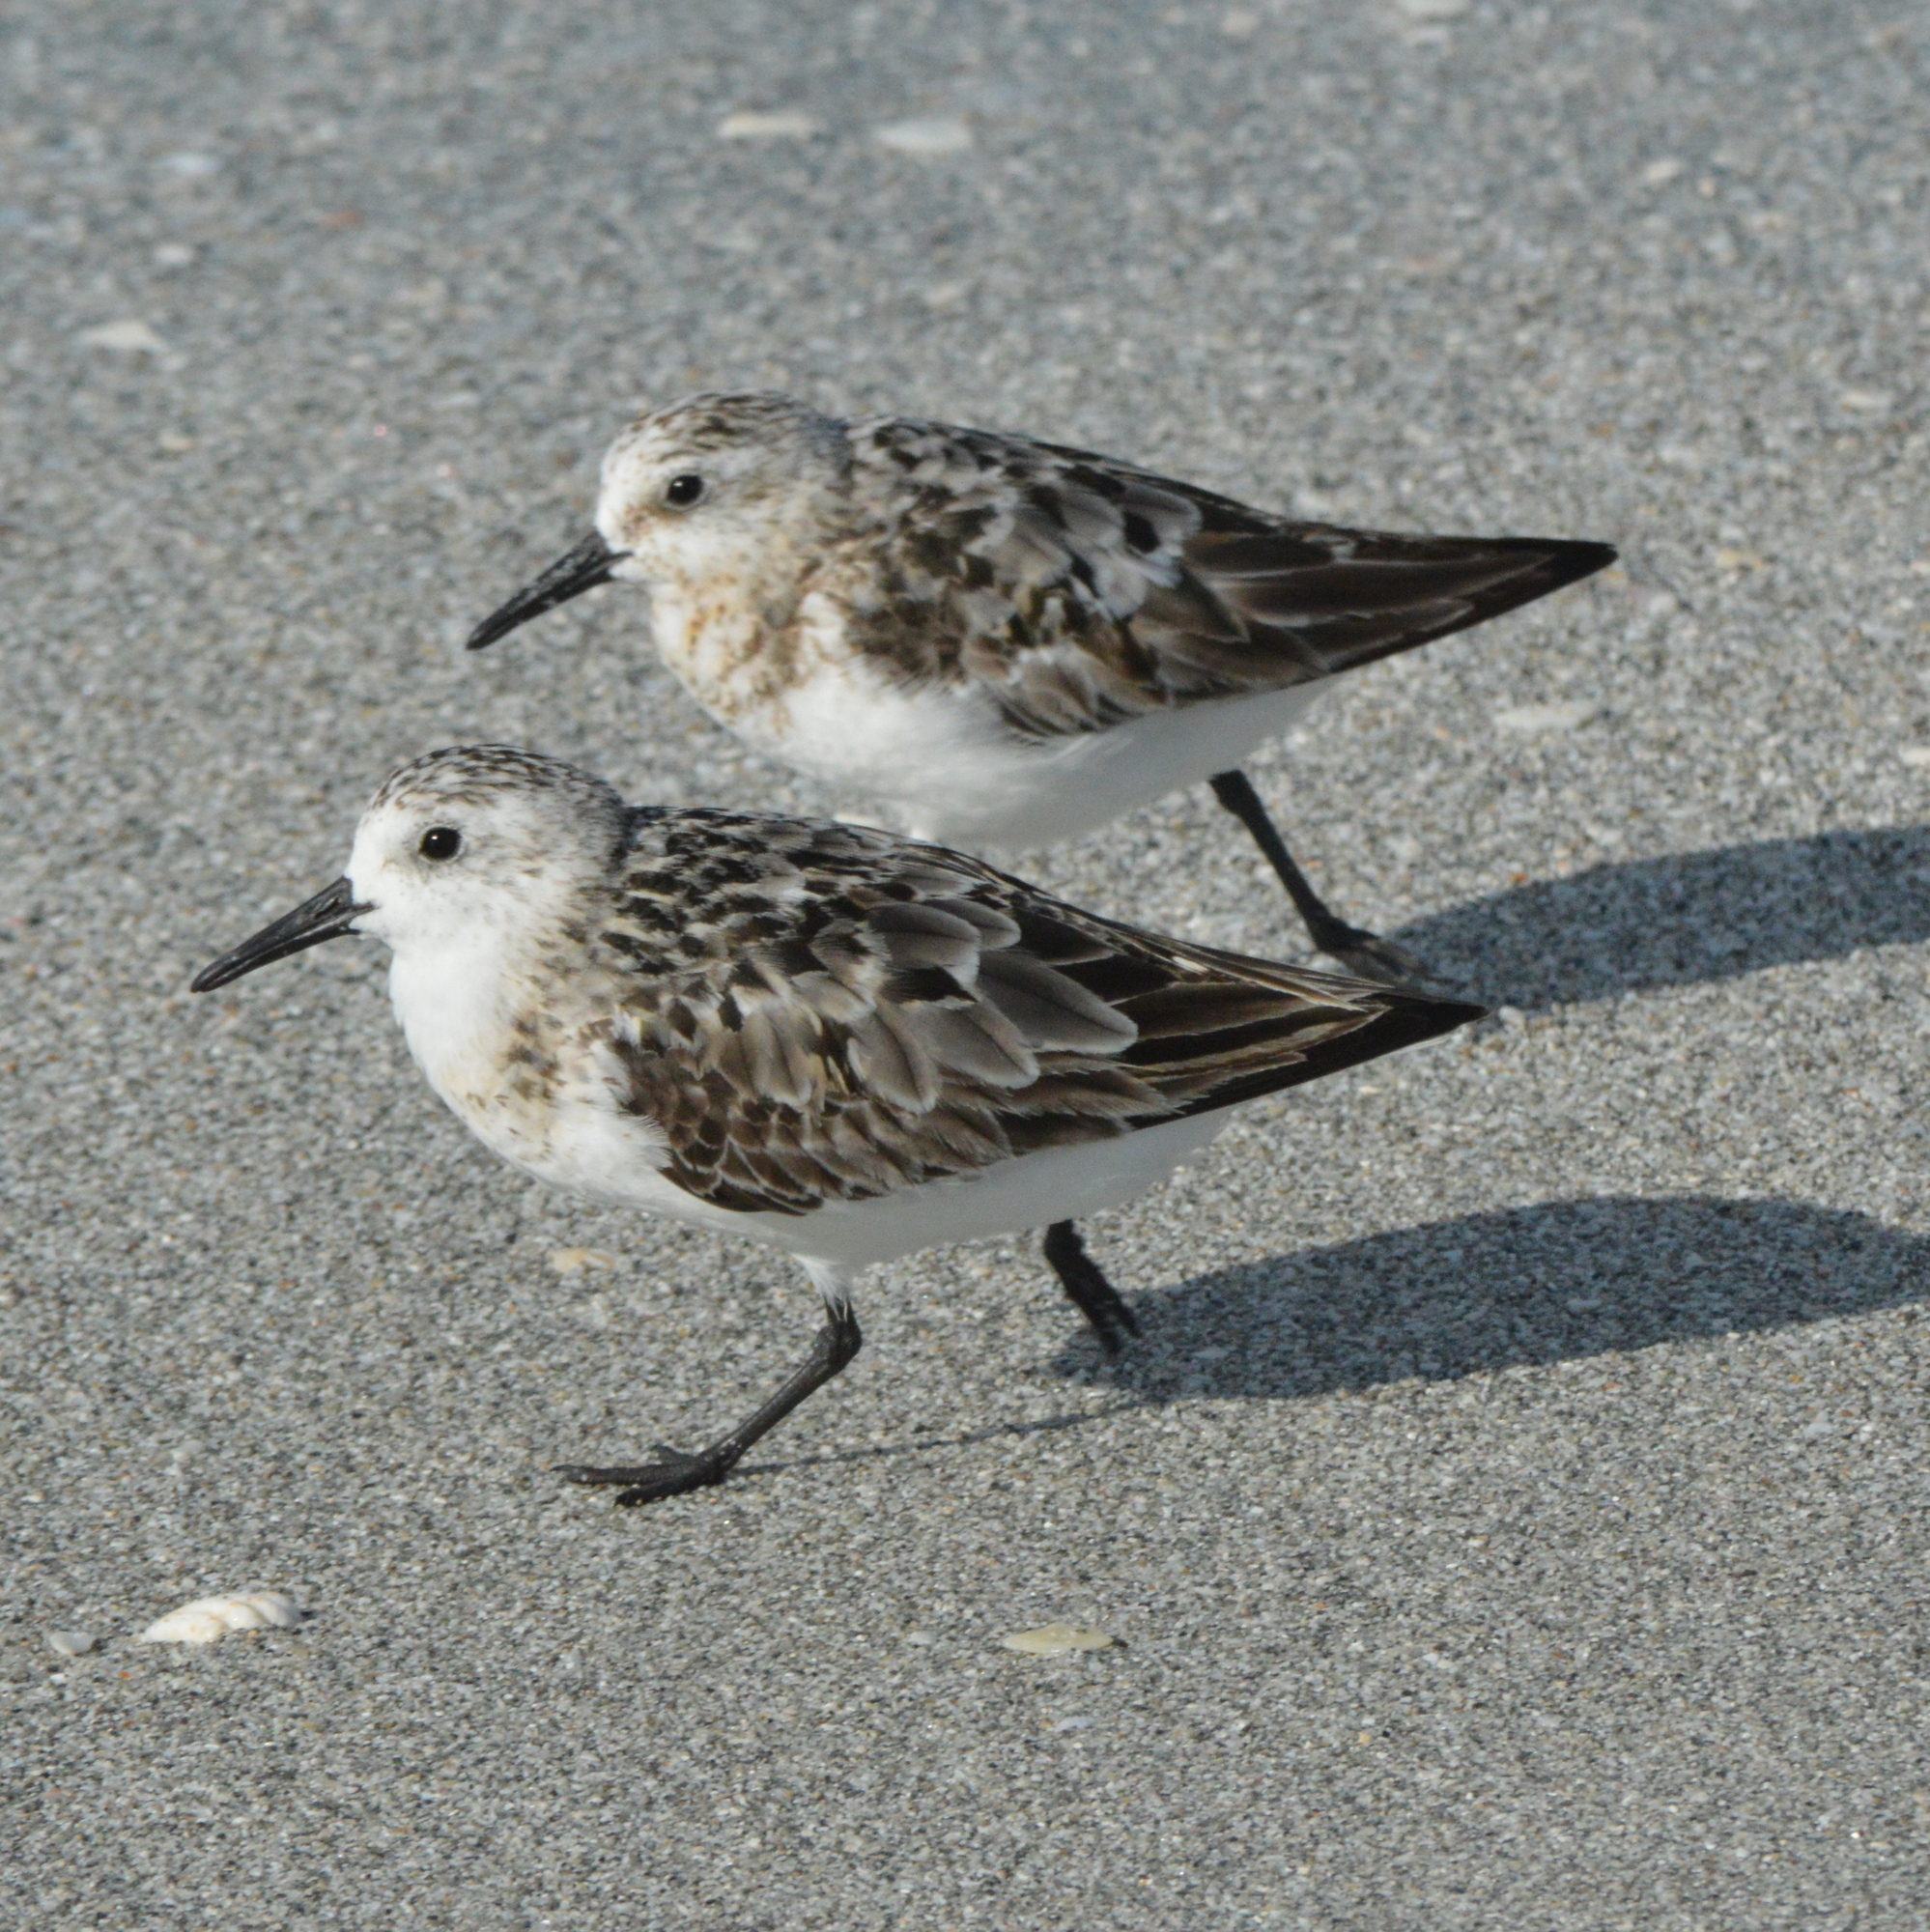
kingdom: Animalia
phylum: Chordata
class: Aves
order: Charadriiformes
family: Scolopacidae
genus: Calidris
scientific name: Calidris alba
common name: Sanderling
